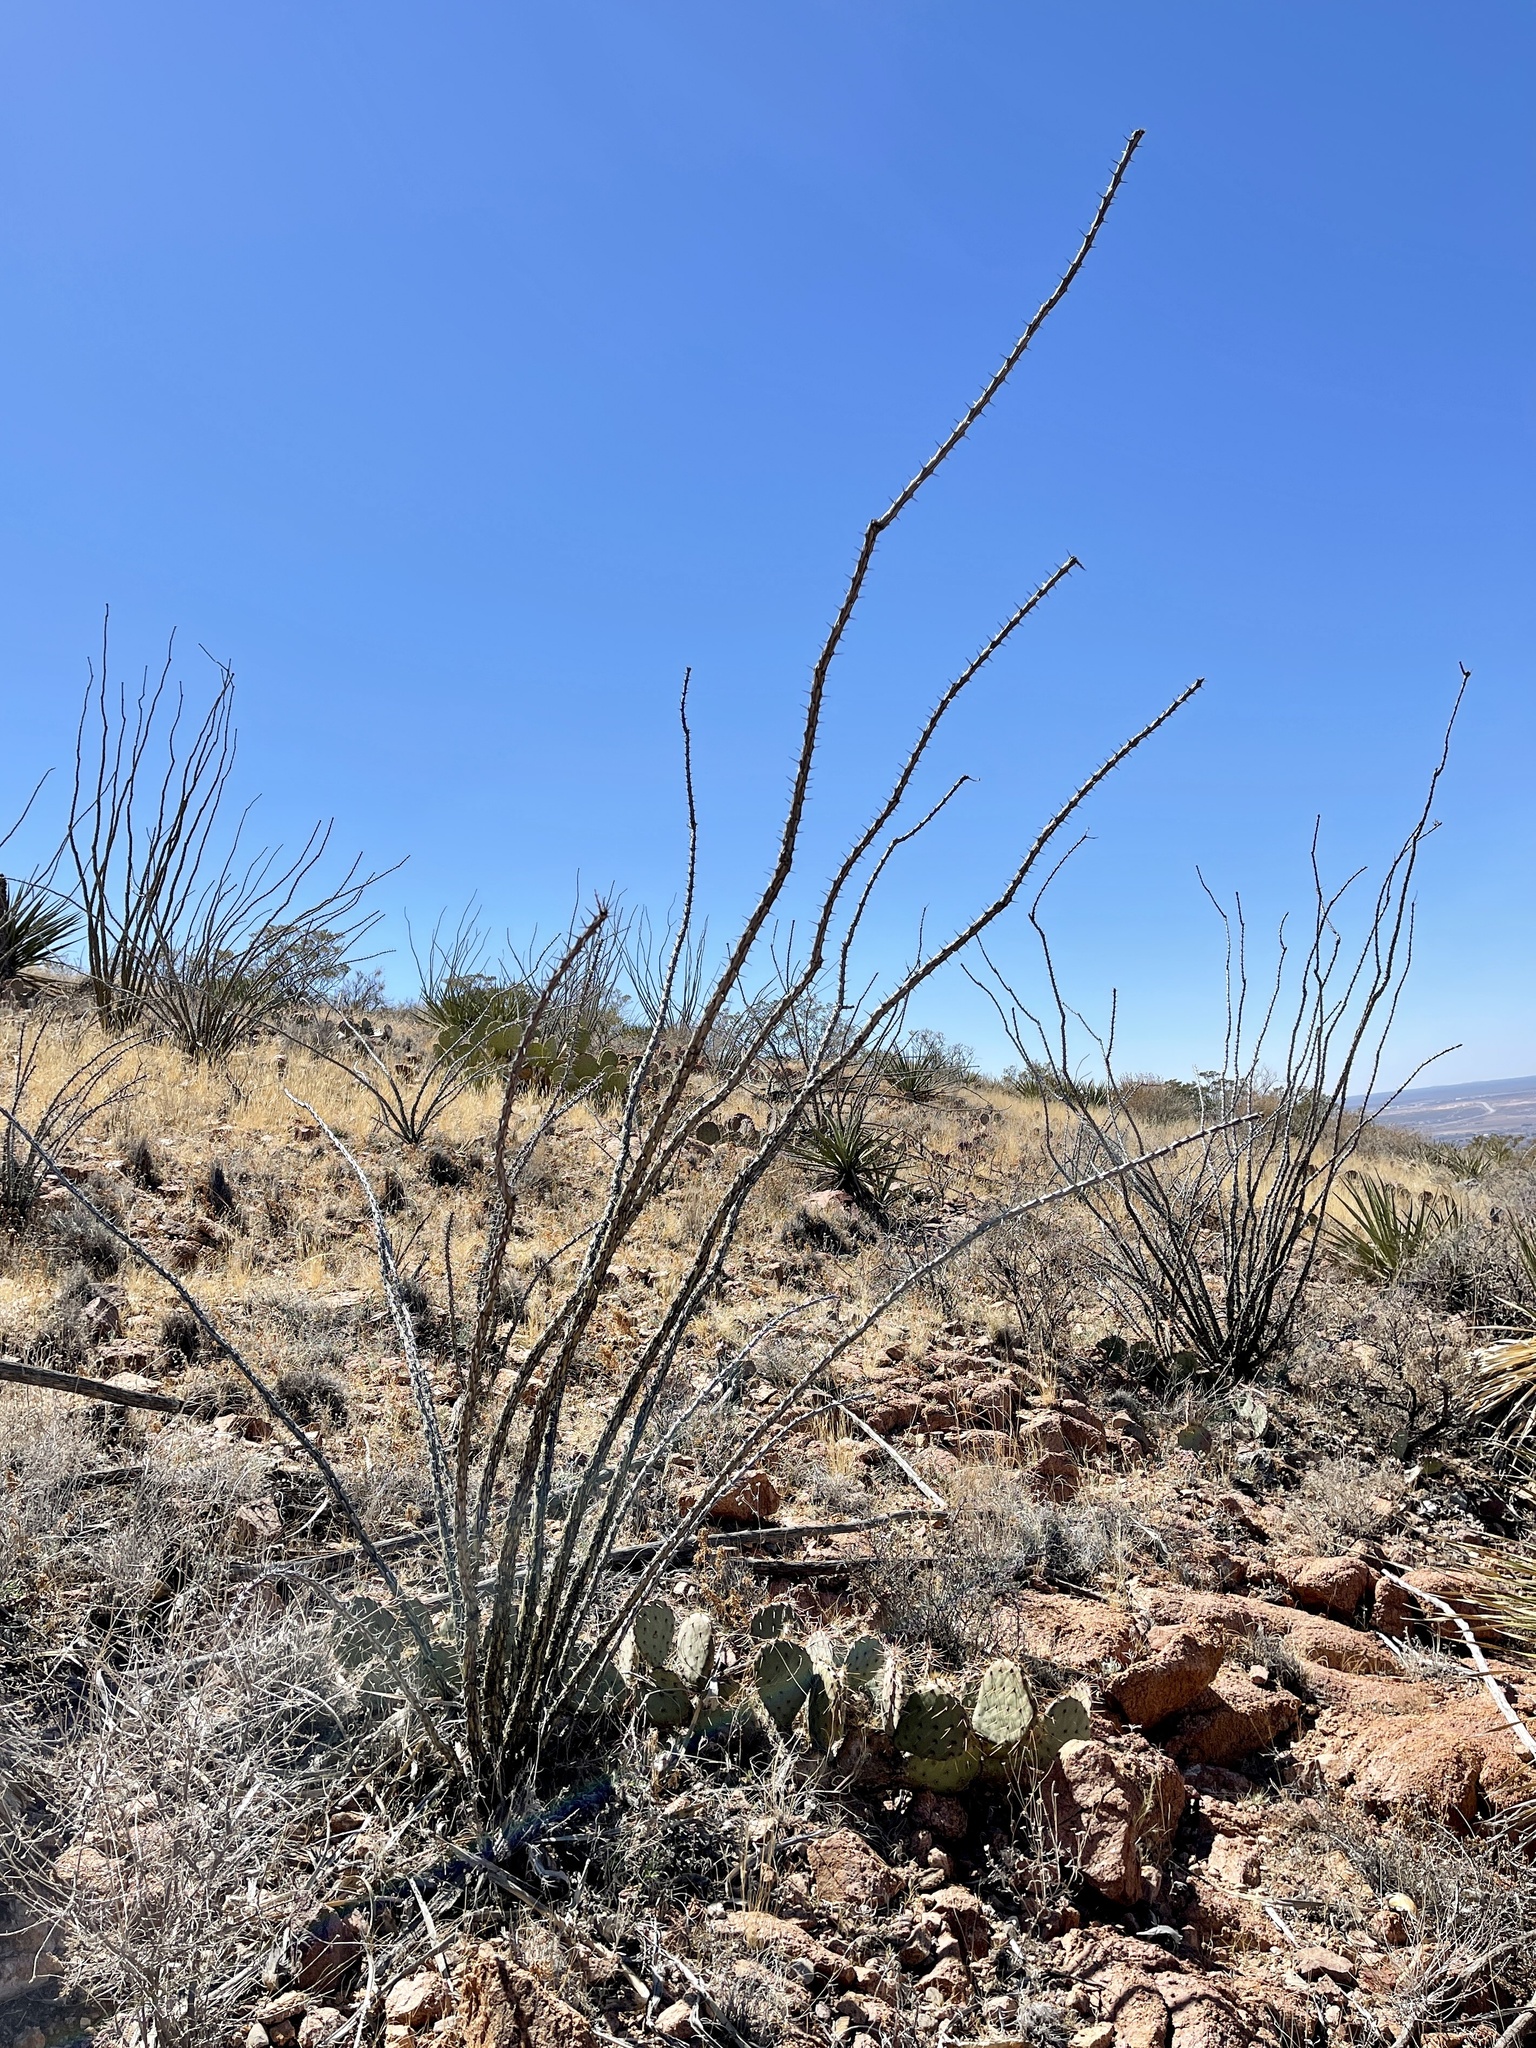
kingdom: Plantae
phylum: Tracheophyta
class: Magnoliopsida
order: Ericales
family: Fouquieriaceae
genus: Fouquieria
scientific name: Fouquieria splendens
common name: Vine-cactus
